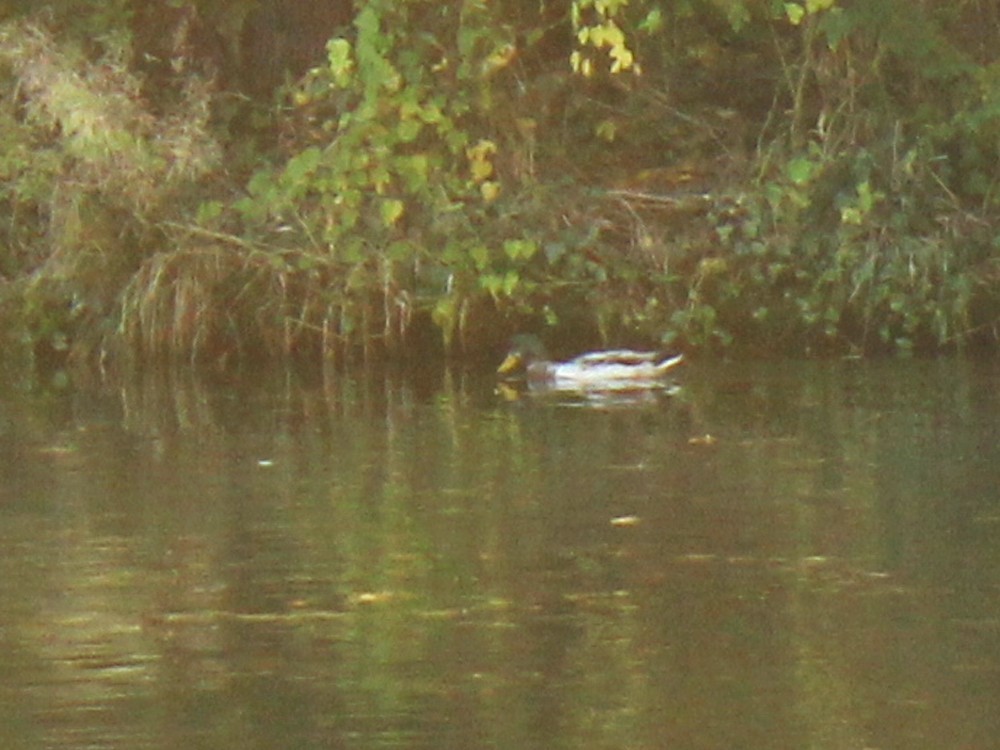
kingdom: Animalia
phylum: Chordata
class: Aves
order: Anseriformes
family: Anatidae
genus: Anas
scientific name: Anas platyrhynchos
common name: Mallard
